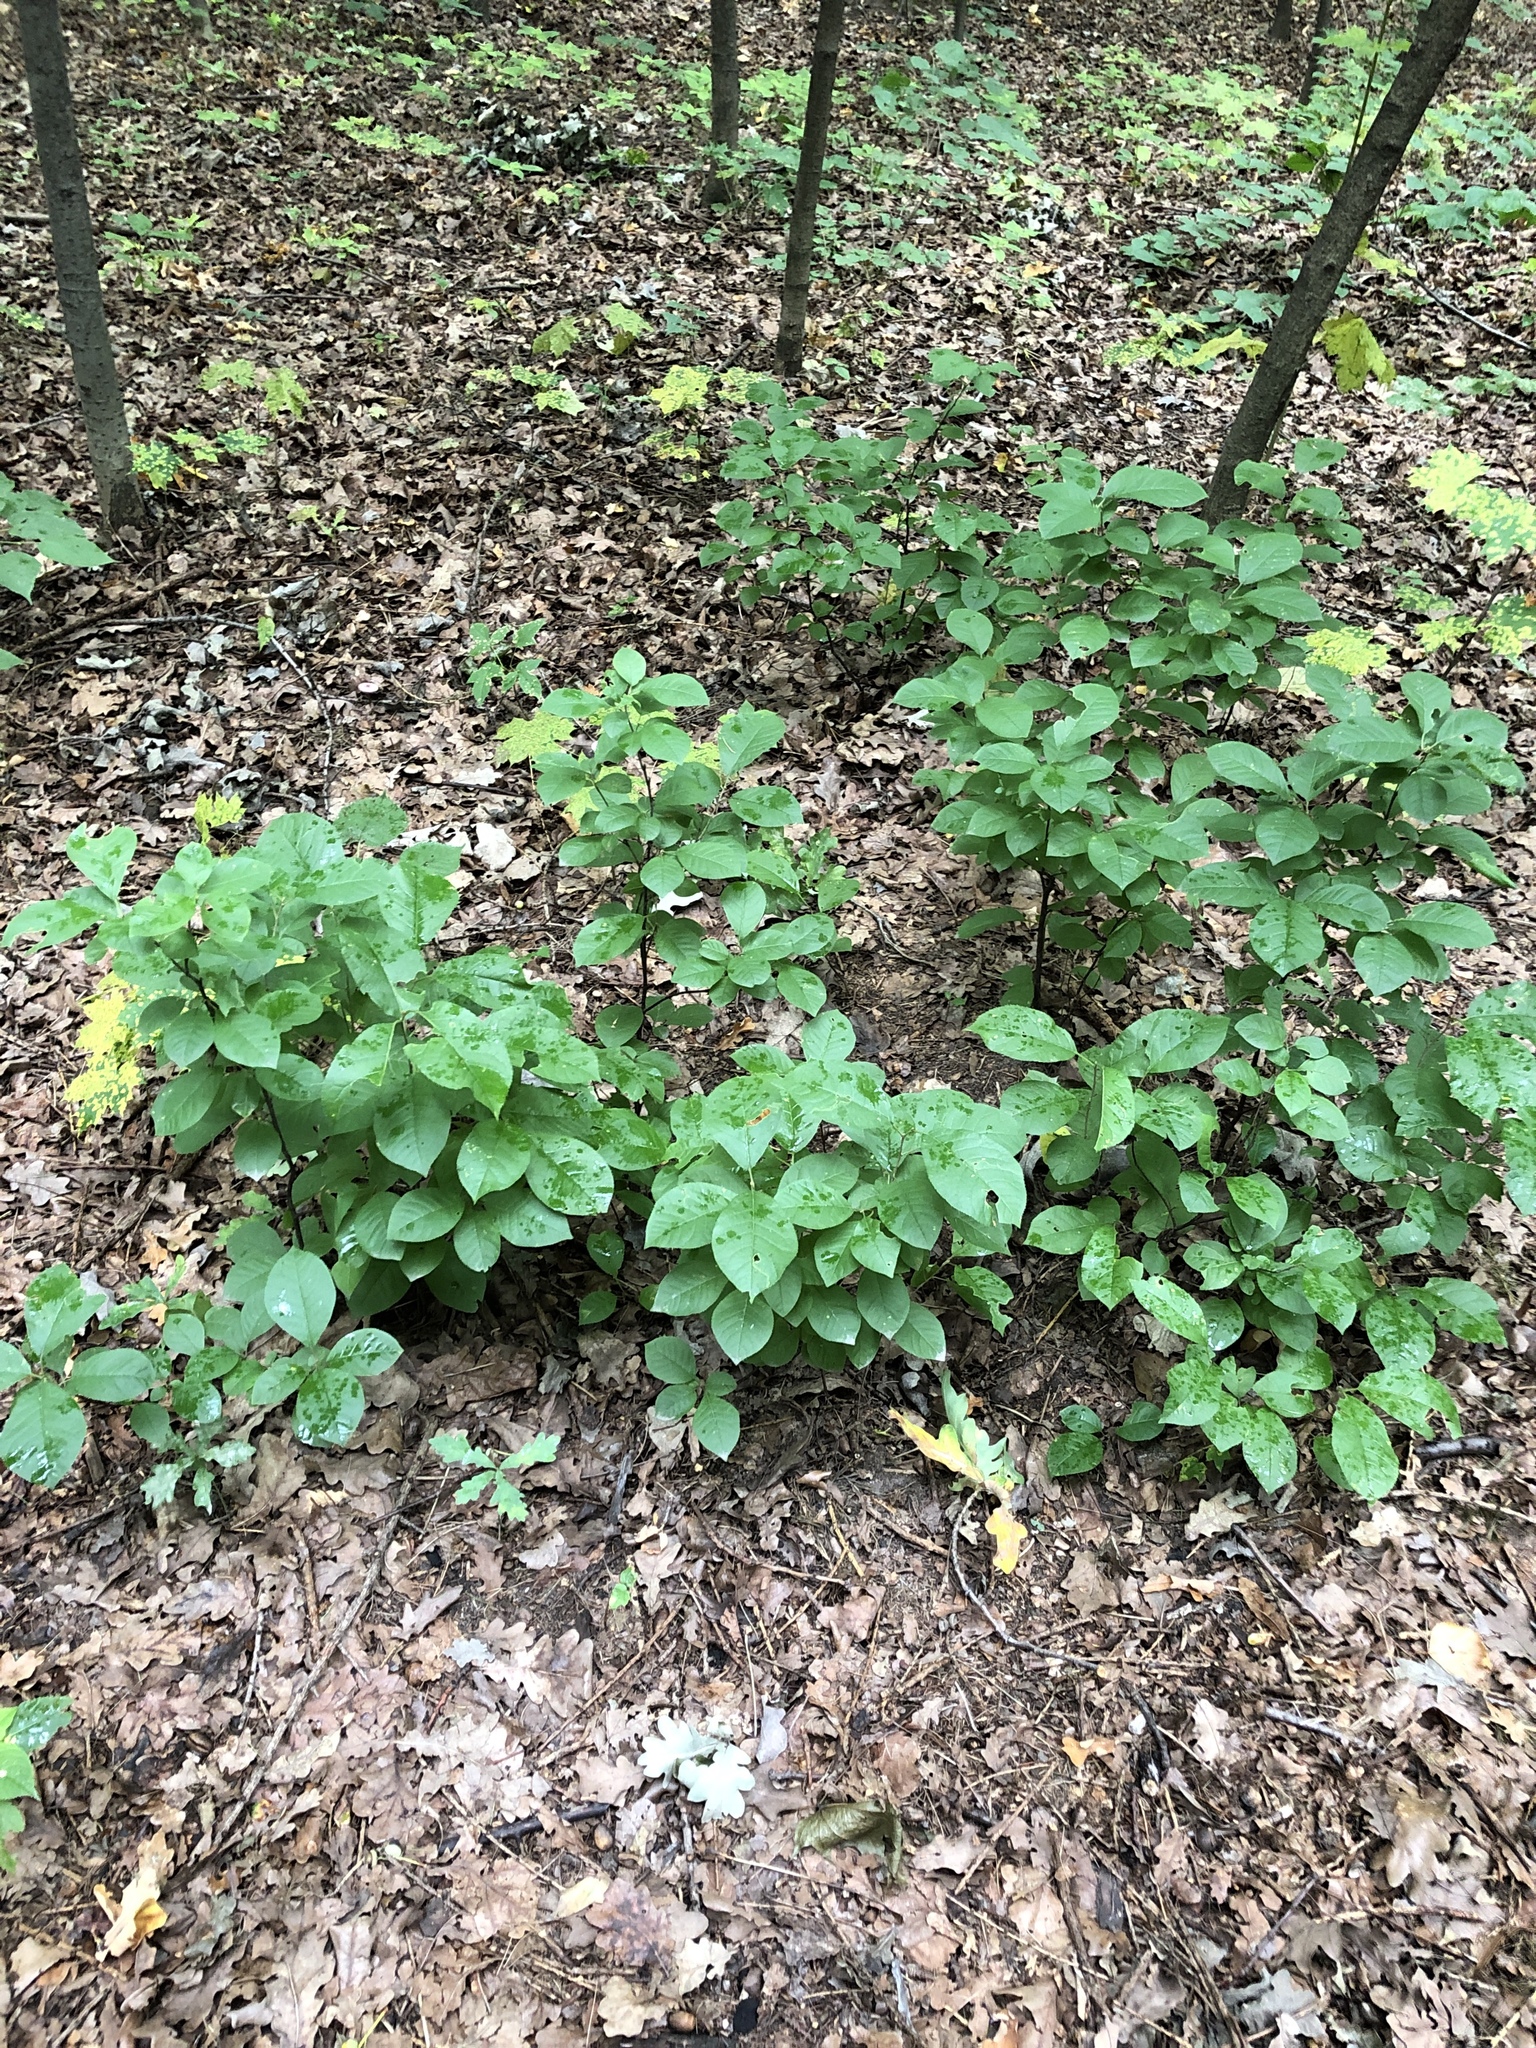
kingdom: Plantae
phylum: Tracheophyta
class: Magnoliopsida
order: Rosales
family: Rosaceae
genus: Prunus
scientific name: Prunus padus
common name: Bird cherry
